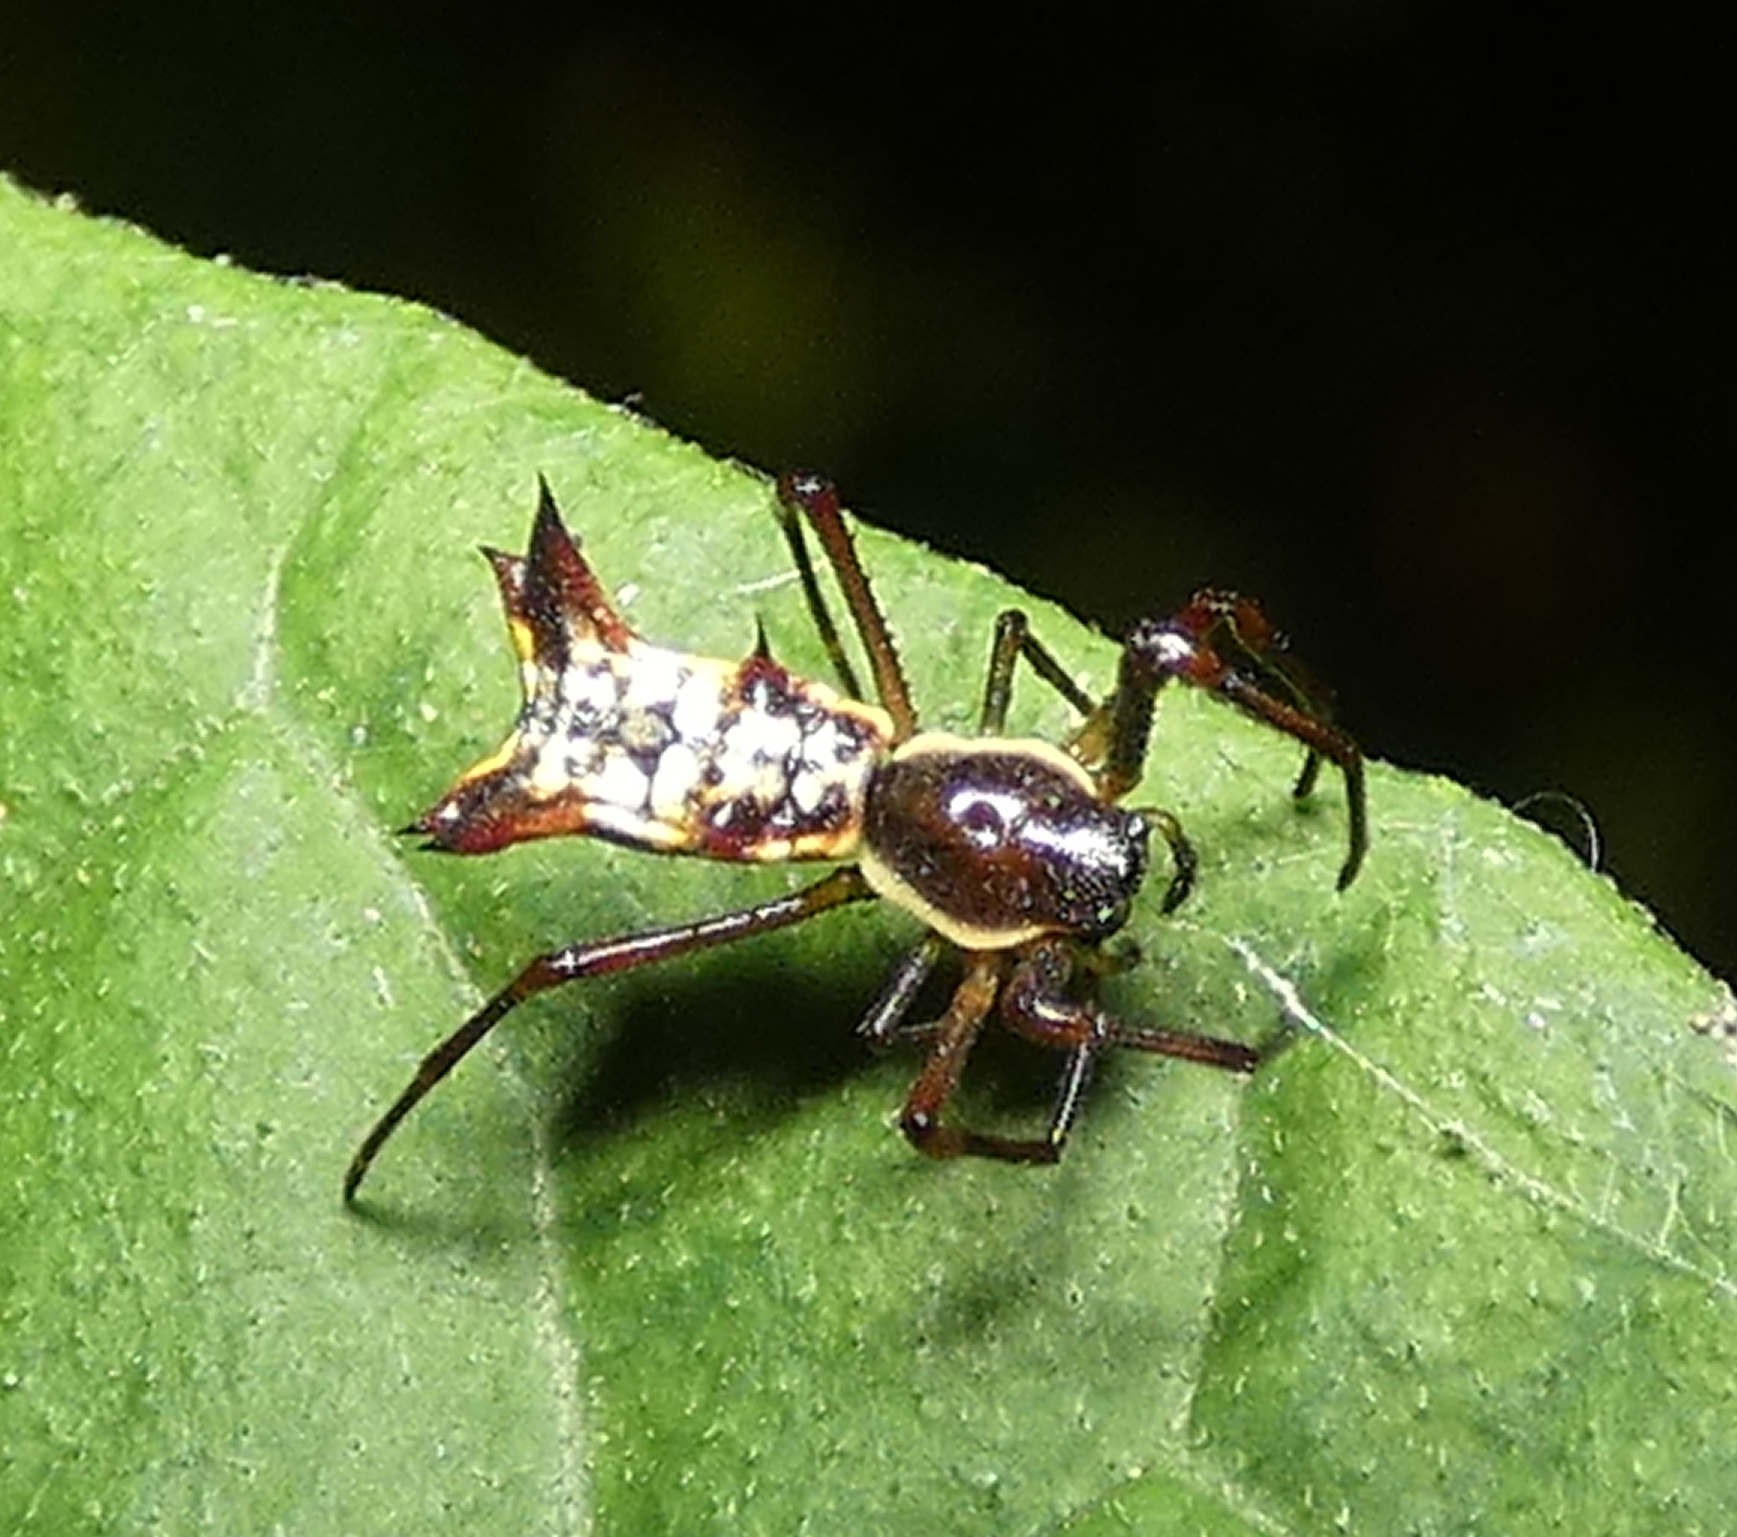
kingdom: Animalia
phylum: Arthropoda
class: Arachnida
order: Araneae
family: Araneidae
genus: Micrathena
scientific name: Micrathena fissispina
